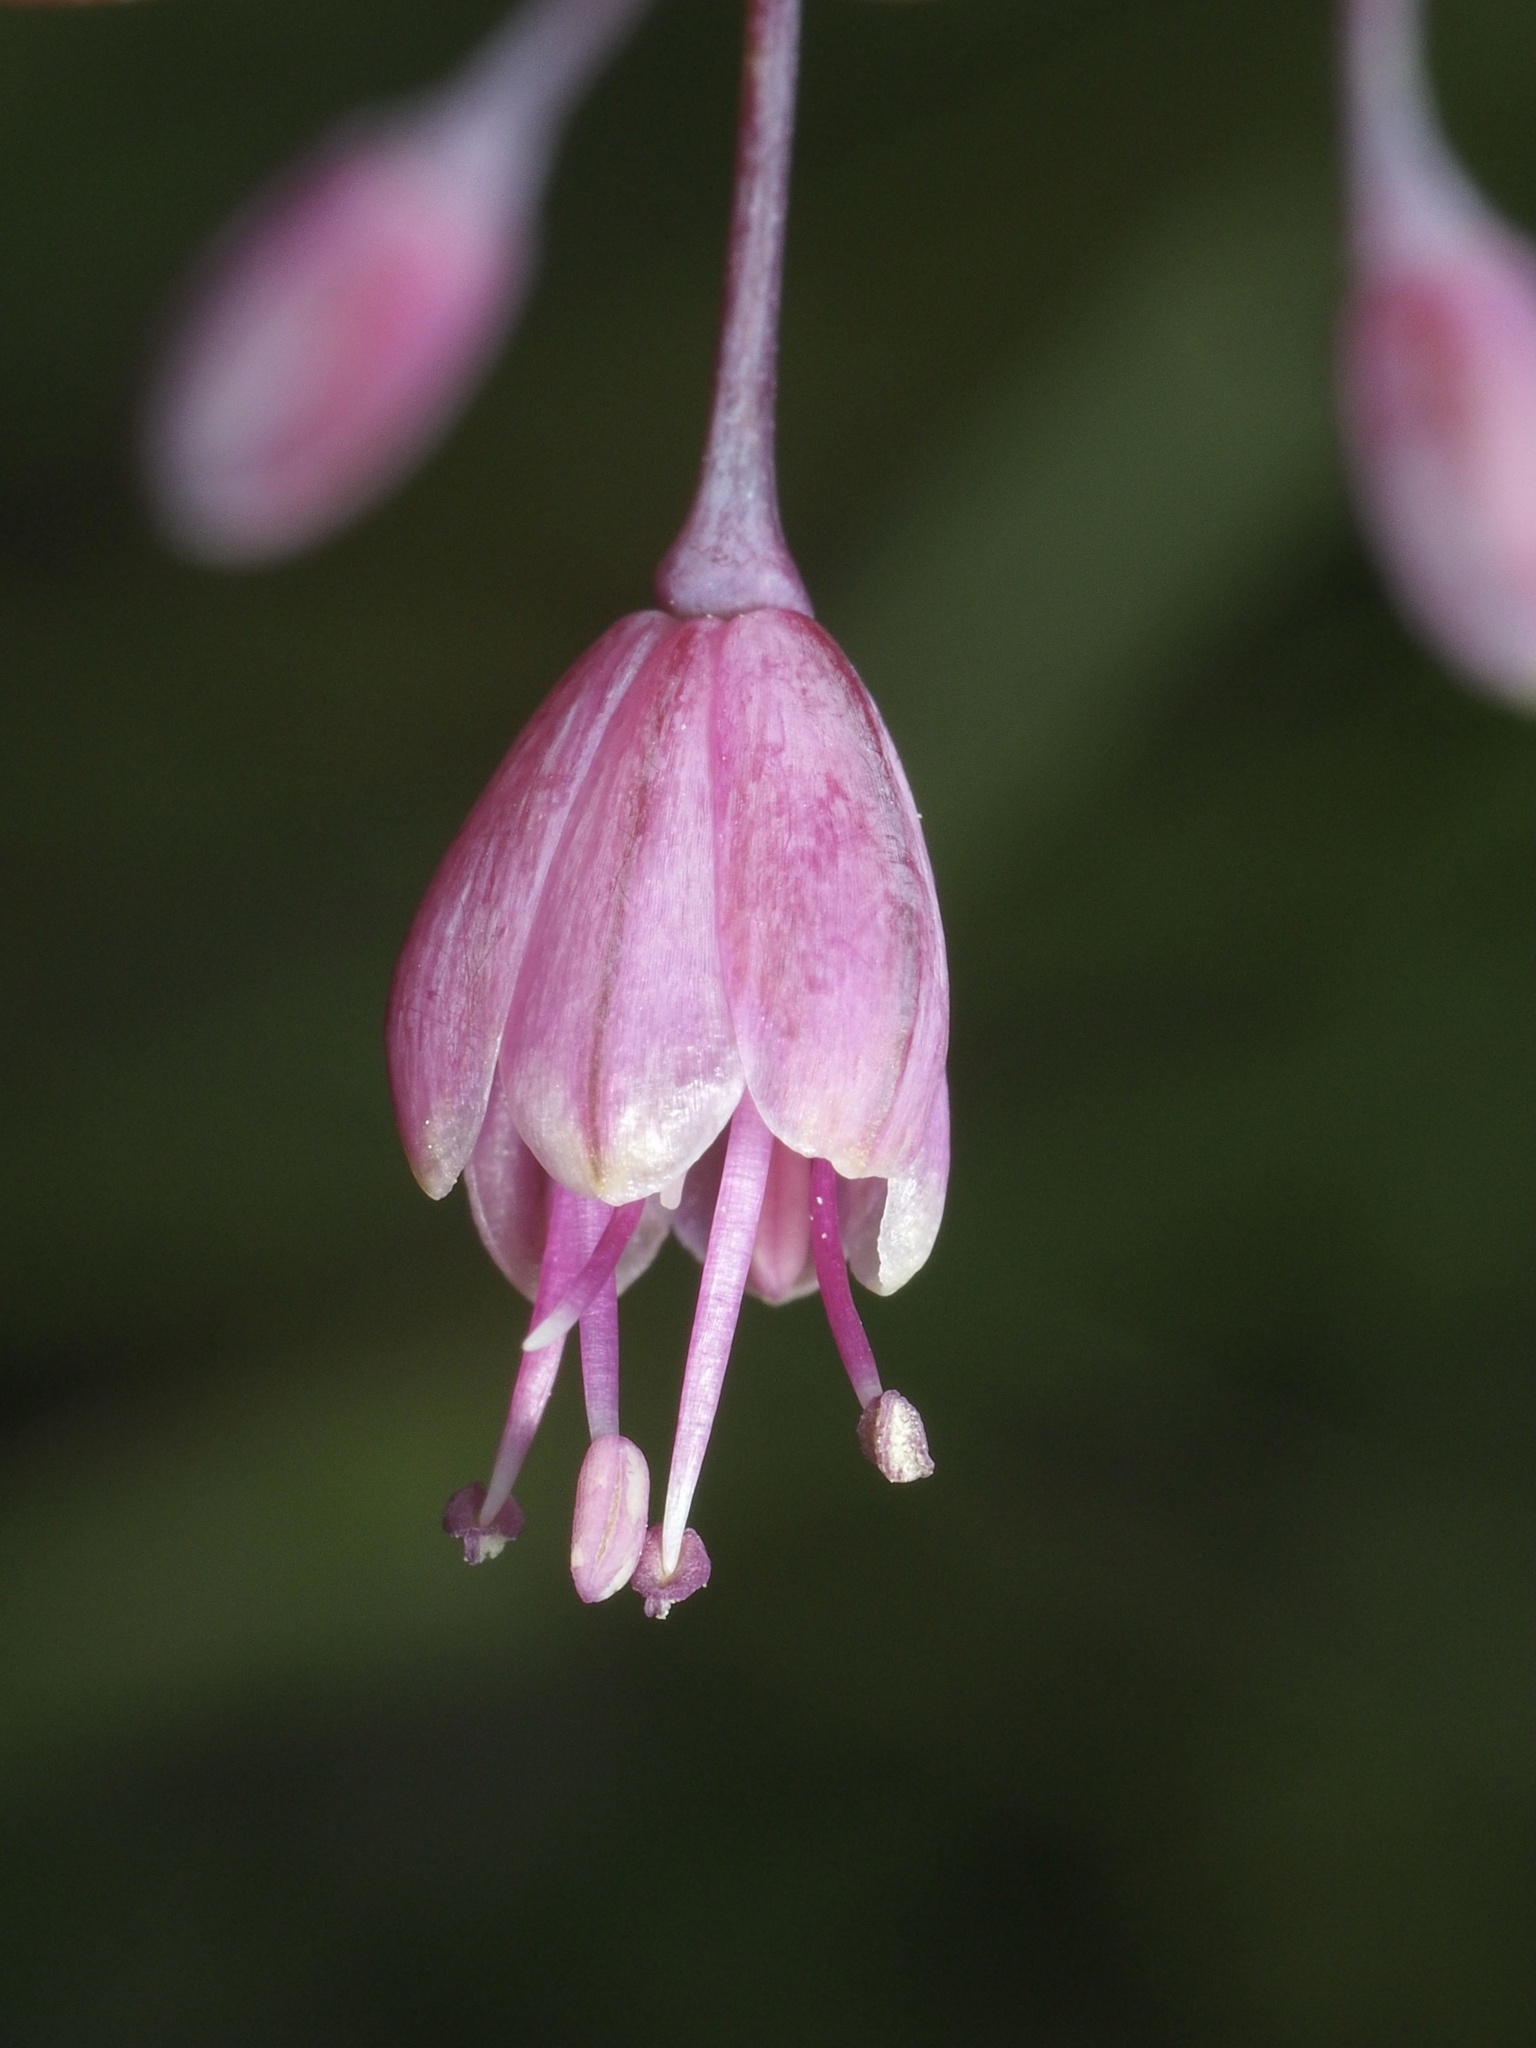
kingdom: Plantae
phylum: Tracheophyta
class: Liliopsida
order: Asparagales
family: Amaryllidaceae
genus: Allium
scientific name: Allium carinatum
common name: Keeled garlic
